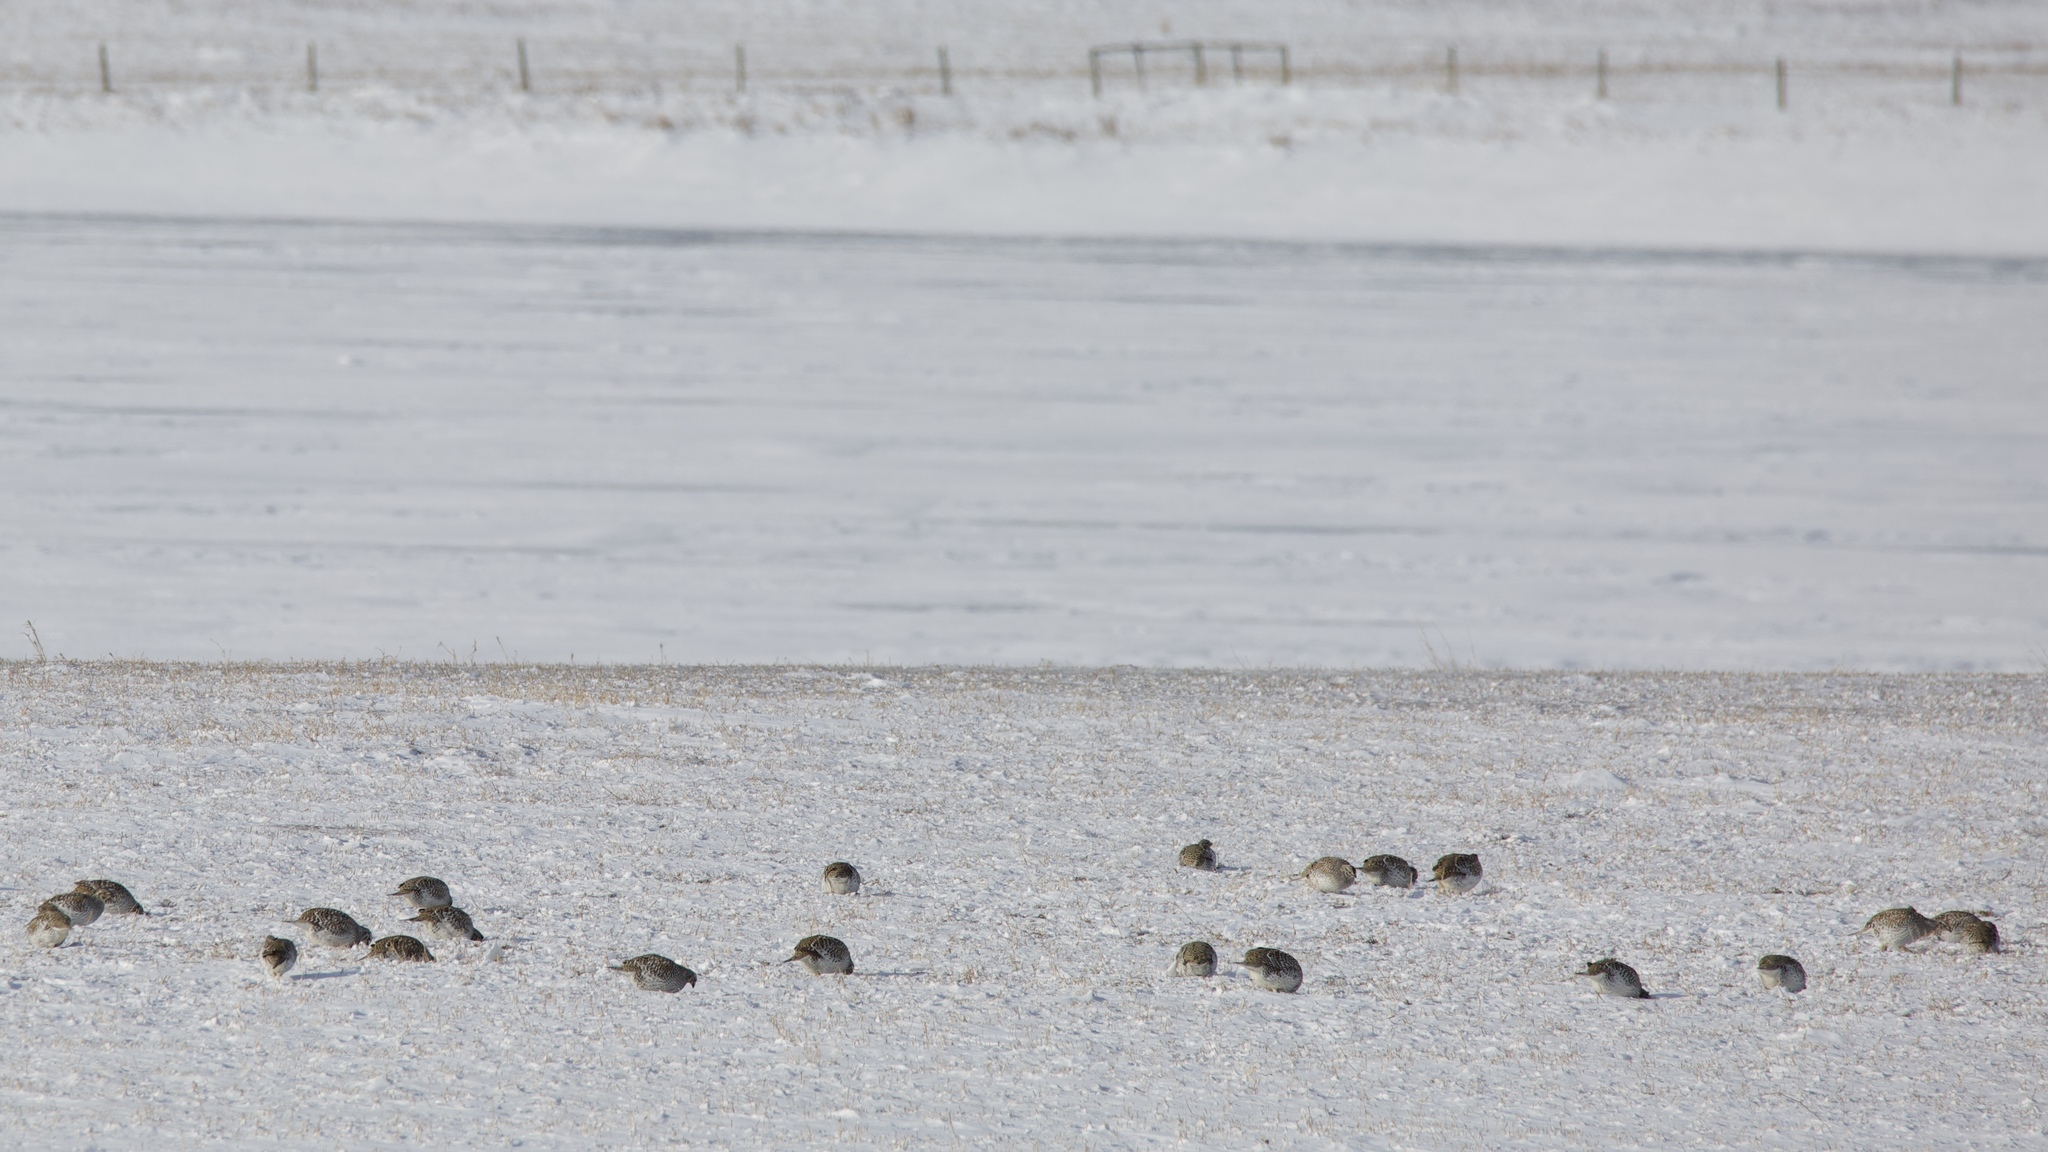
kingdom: Animalia
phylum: Chordata
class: Aves
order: Galliformes
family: Phasianidae
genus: Tympanuchus
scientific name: Tympanuchus phasianellus
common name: Sharp-tailed grouse
